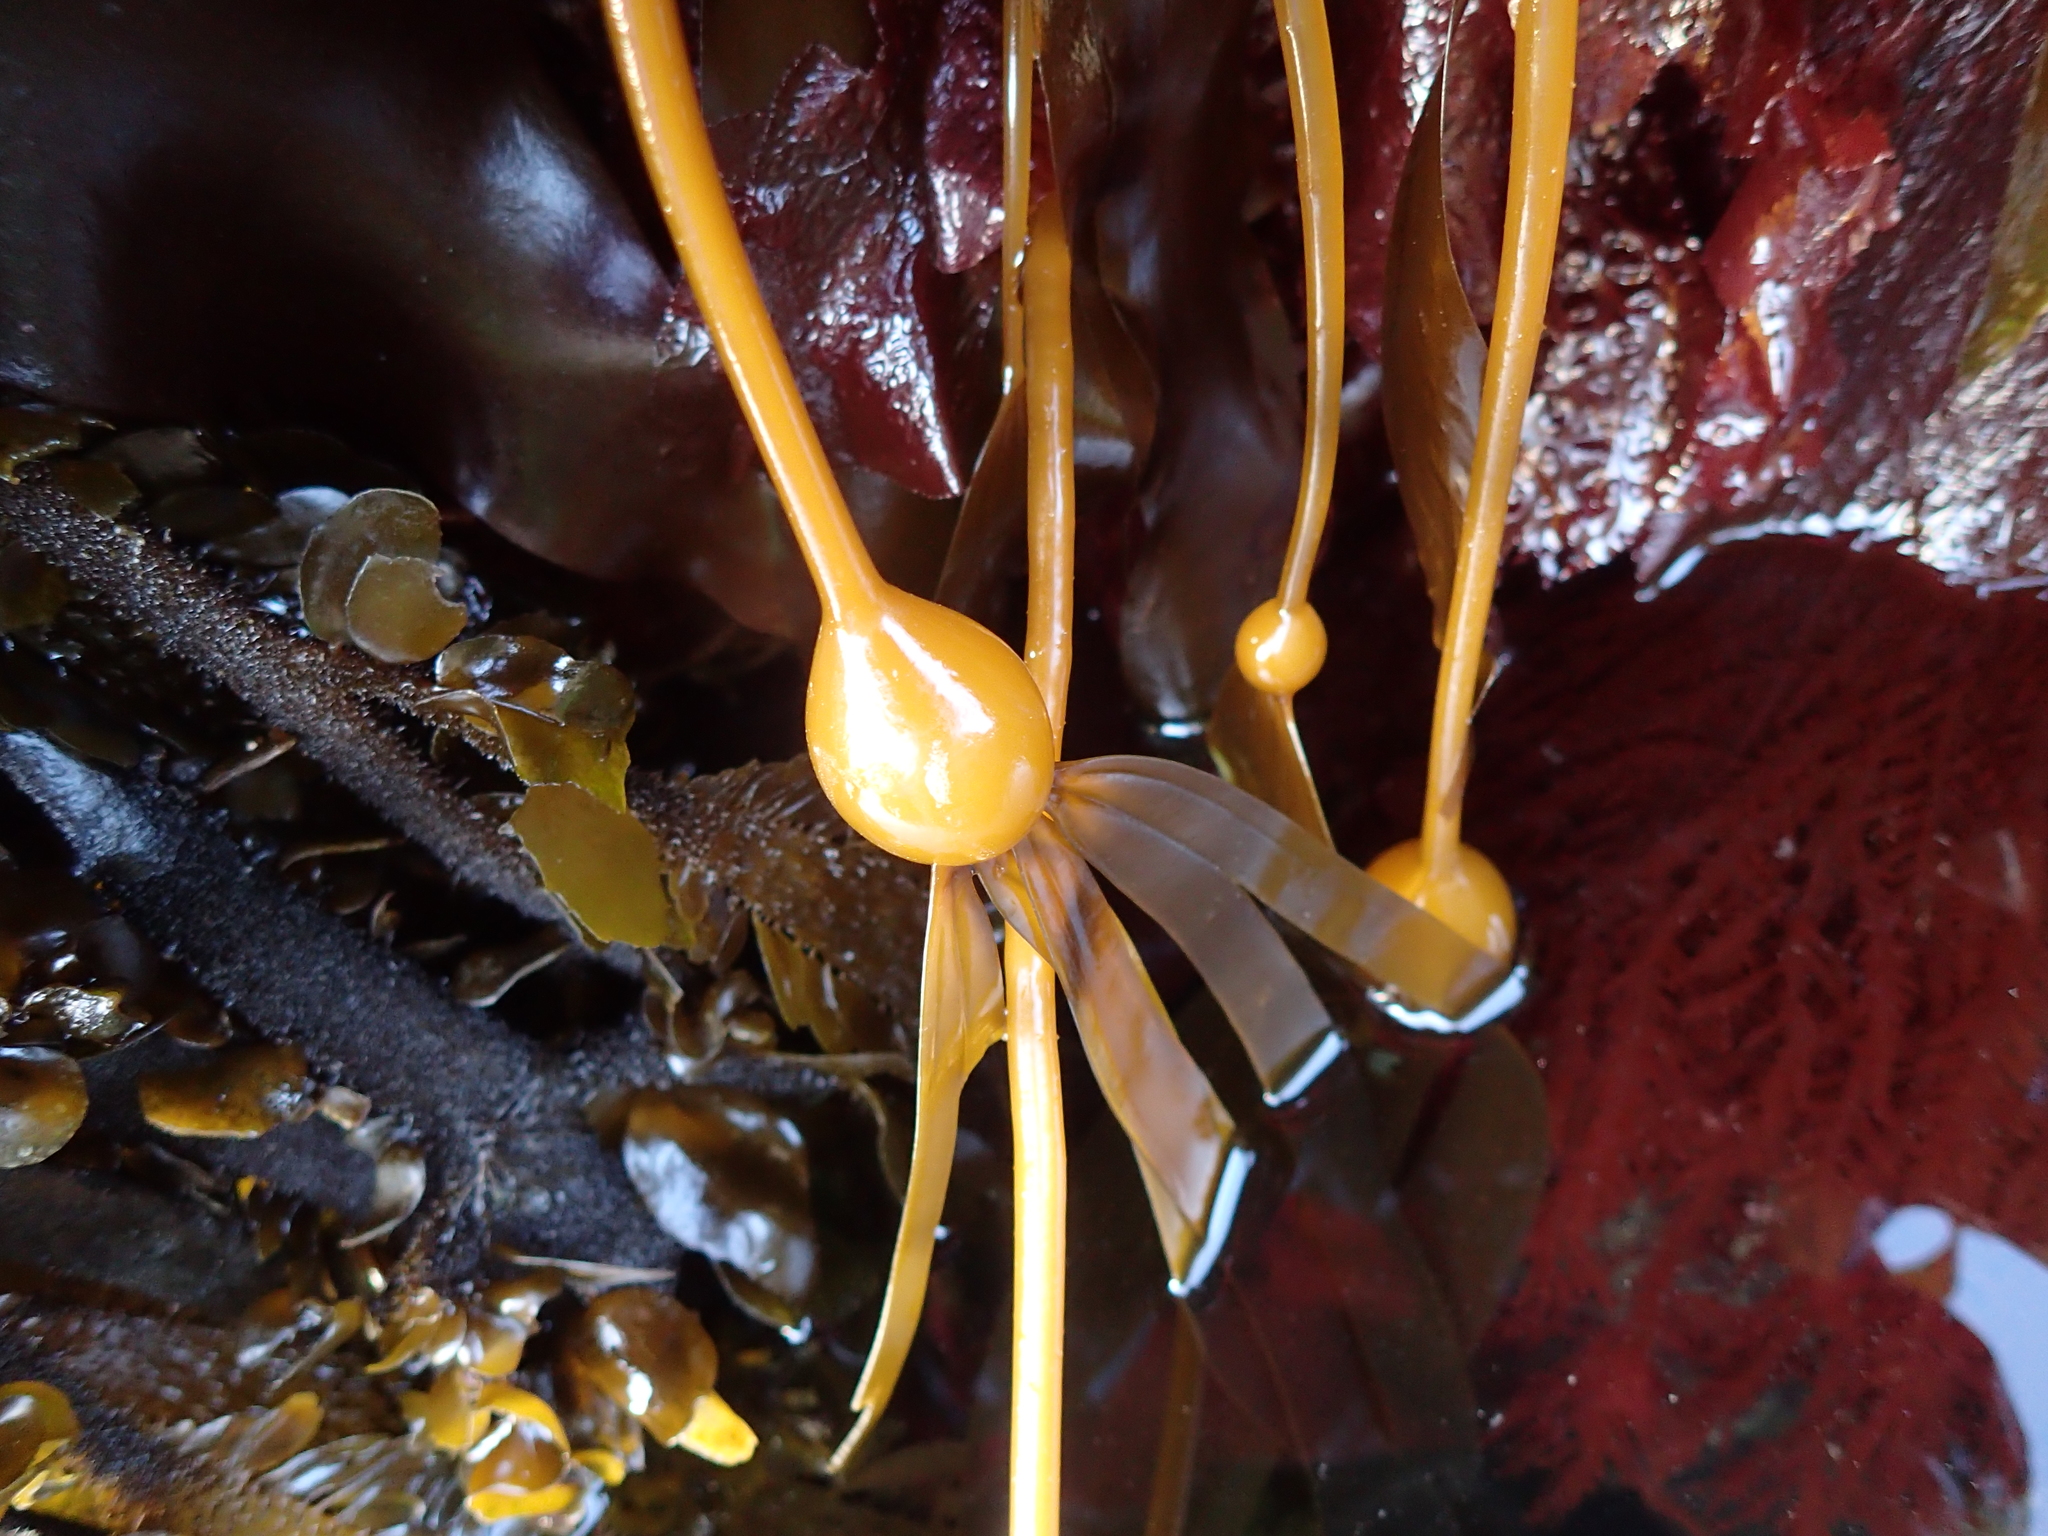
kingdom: Chromista
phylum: Ochrophyta
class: Phaeophyceae
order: Laminariales
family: Laminariaceae
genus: Nereocystis
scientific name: Nereocystis luetkeana
